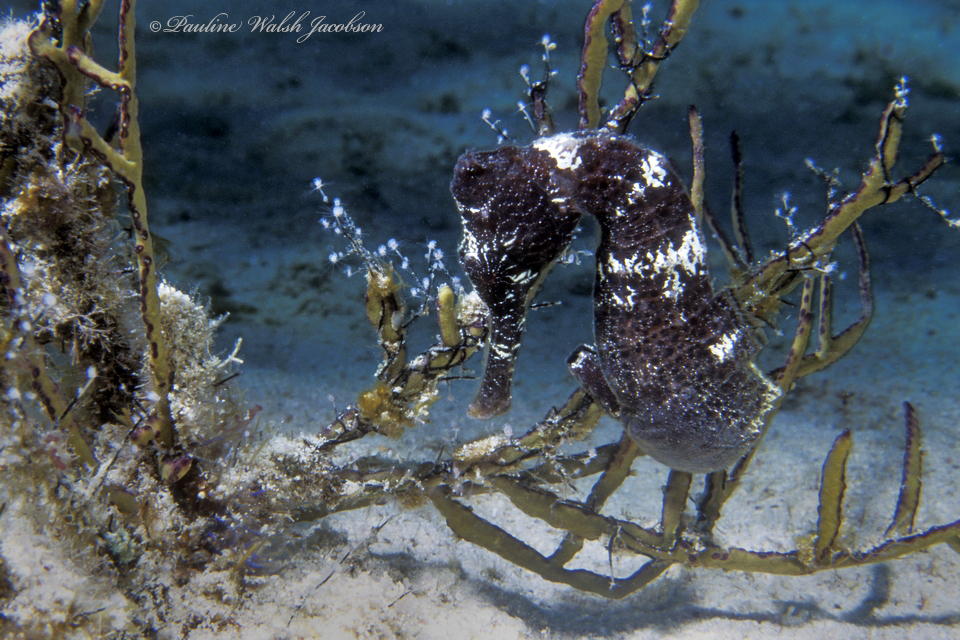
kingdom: Animalia
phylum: Chordata
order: Syngnathiformes
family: Syngnathidae
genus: Hippocampus
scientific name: Hippocampus reidi
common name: Slender seahorse
